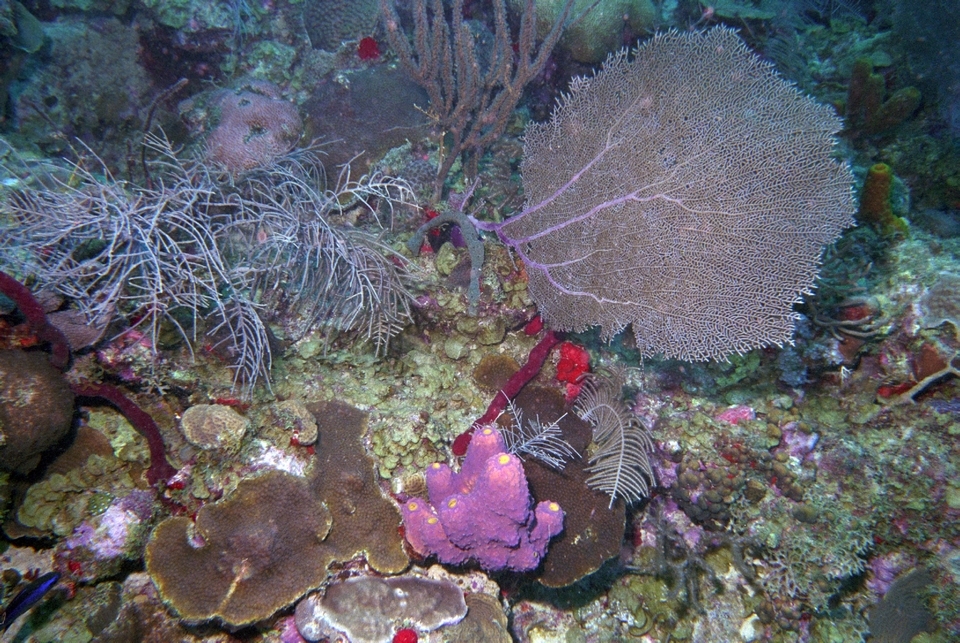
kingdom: Animalia
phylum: Porifera
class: Demospongiae
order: Verongiida
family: Aplysinidae
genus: Aiolochroia
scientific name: Aiolochroia crassa
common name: Branching tube sponge
